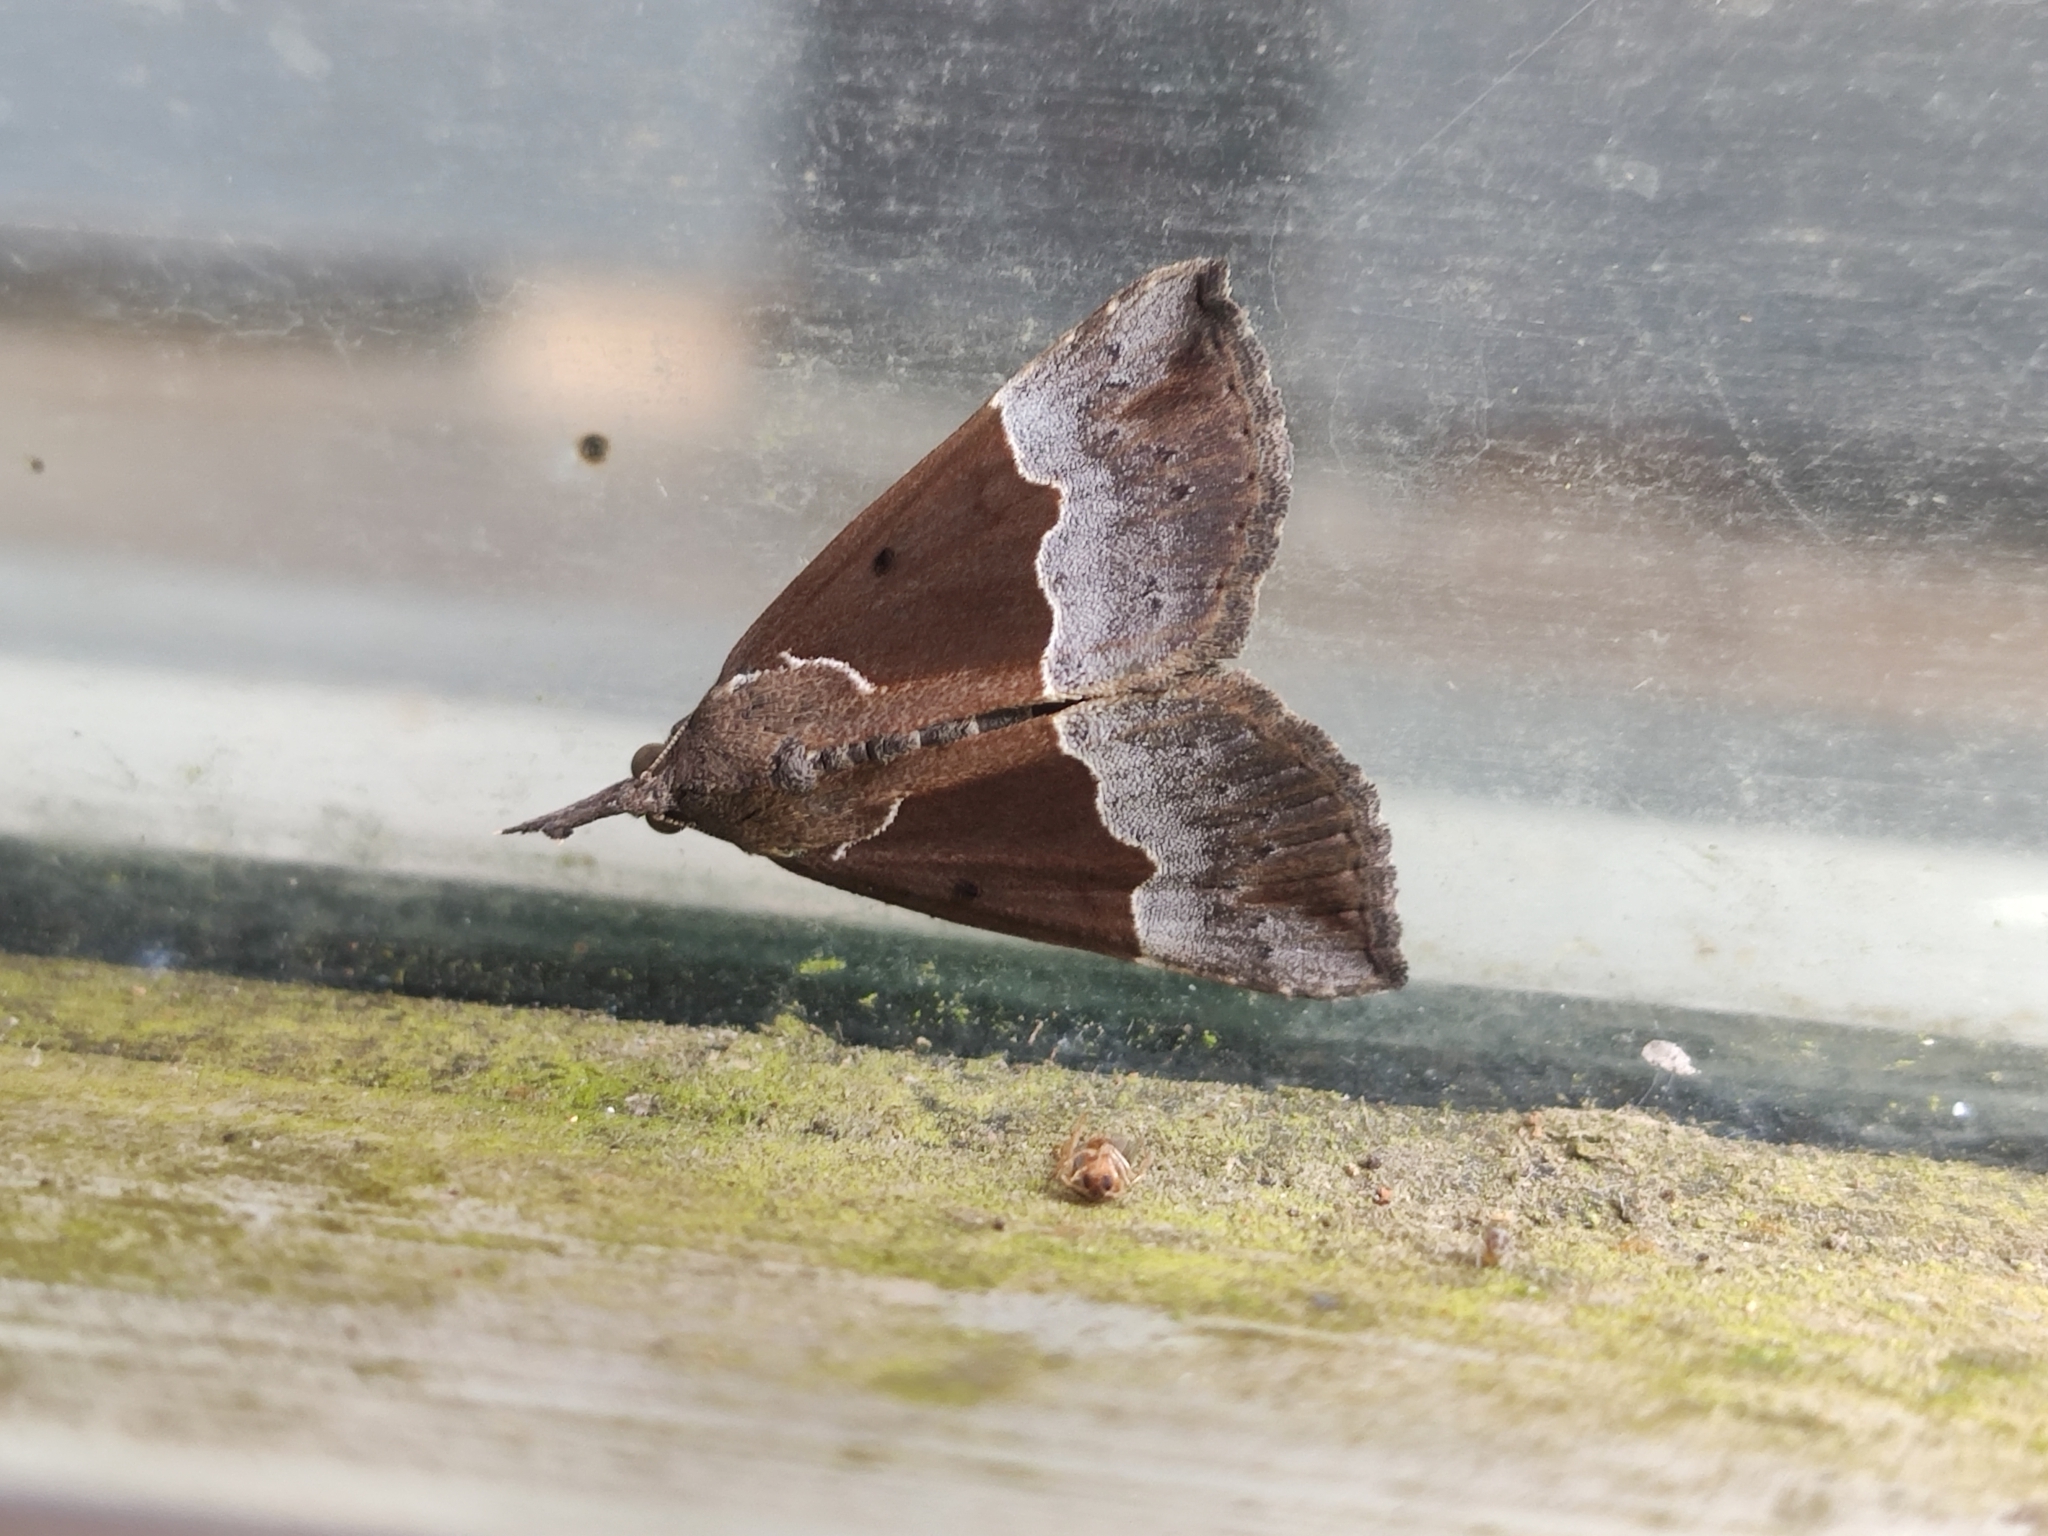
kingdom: Animalia
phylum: Arthropoda
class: Insecta
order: Lepidoptera
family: Erebidae
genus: Hypena
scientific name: Hypena bijugalis
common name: Dimorphic bomolocha moth
